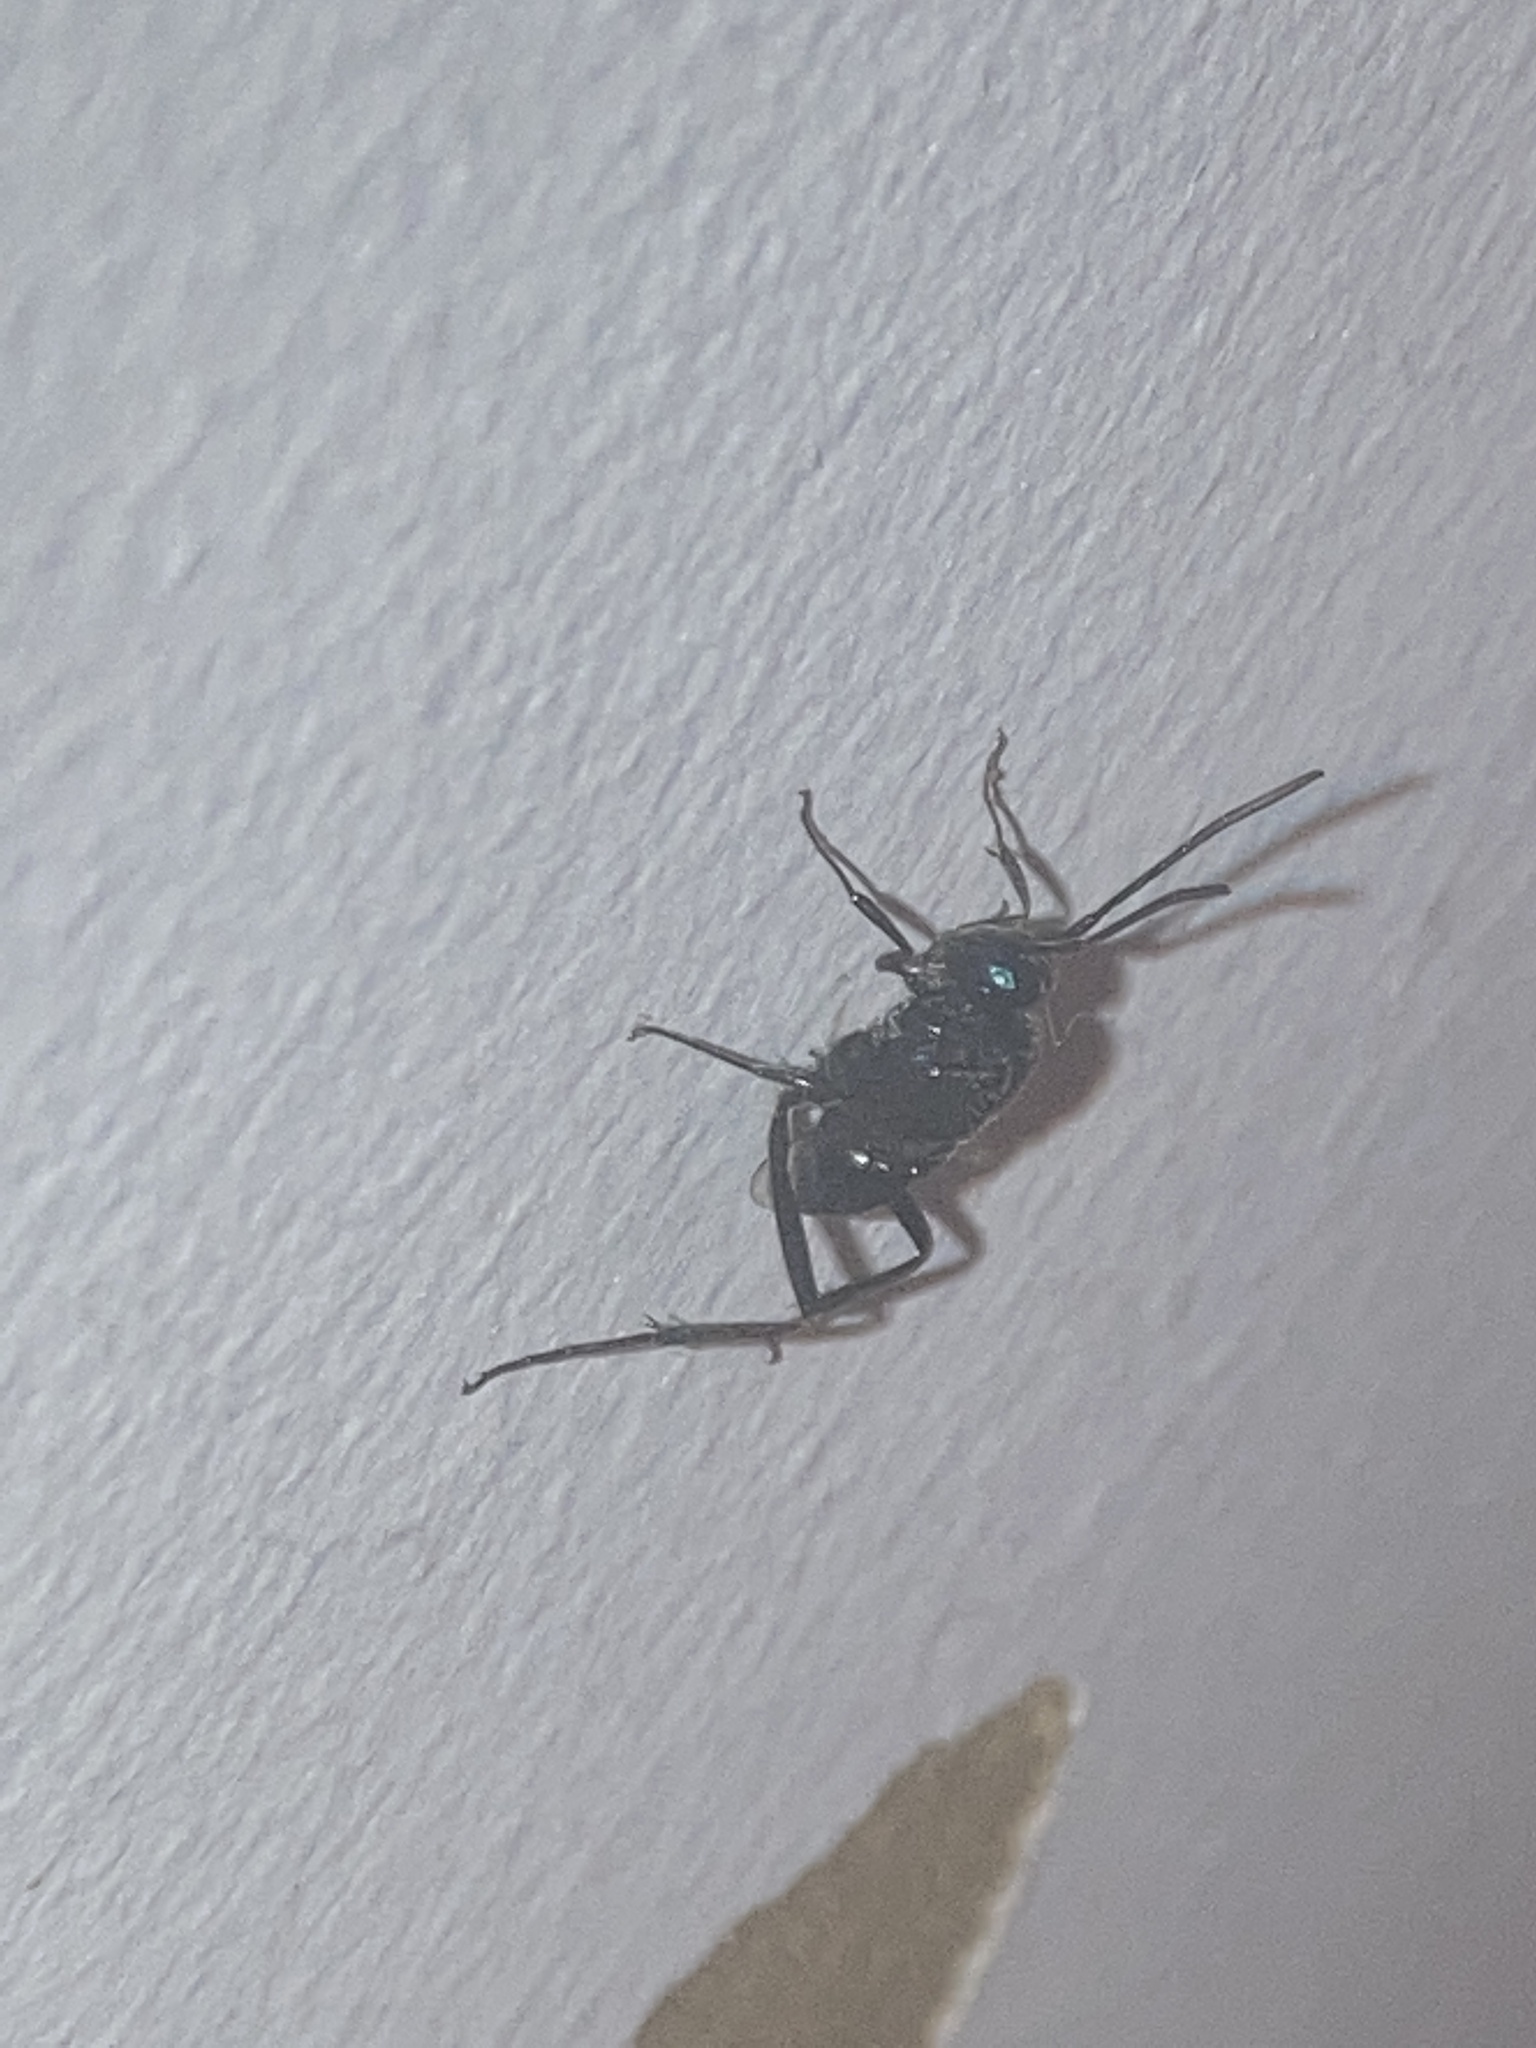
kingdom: Animalia
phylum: Arthropoda
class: Insecta
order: Hymenoptera
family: Evaniidae
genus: Evania
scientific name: Evania appendigaster
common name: Ensign wasp
